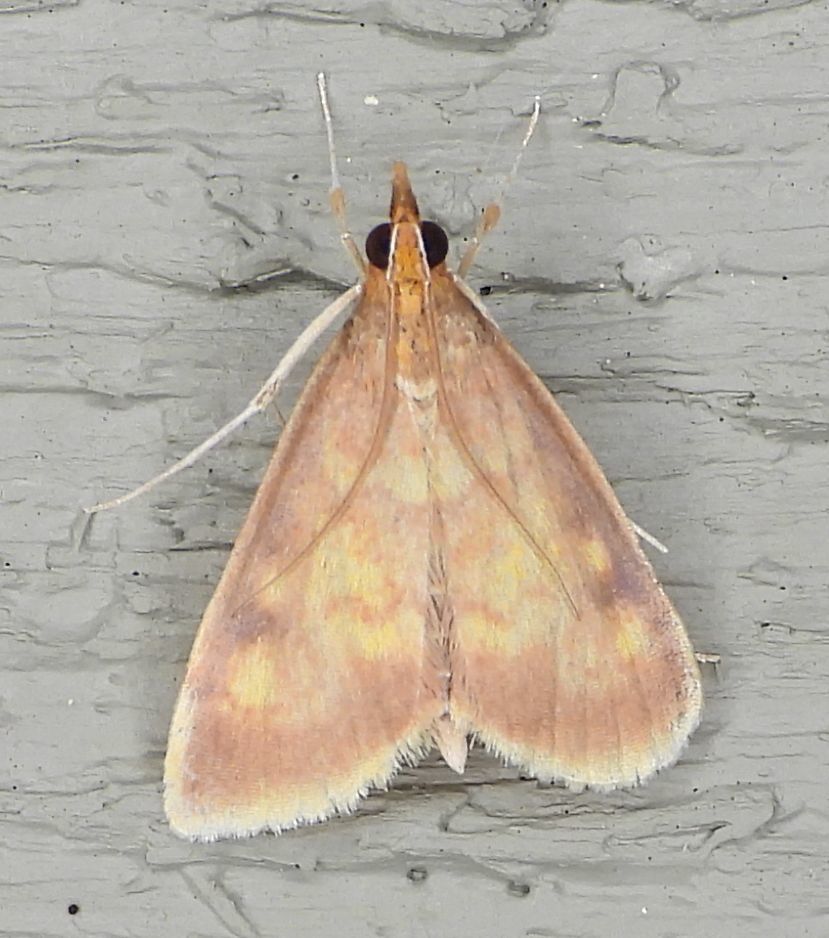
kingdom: Animalia
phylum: Arthropoda
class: Insecta
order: Lepidoptera
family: Crambidae
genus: Pyrausta
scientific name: Pyrausta acrionalis
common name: Mint-loving pyrausta moth
